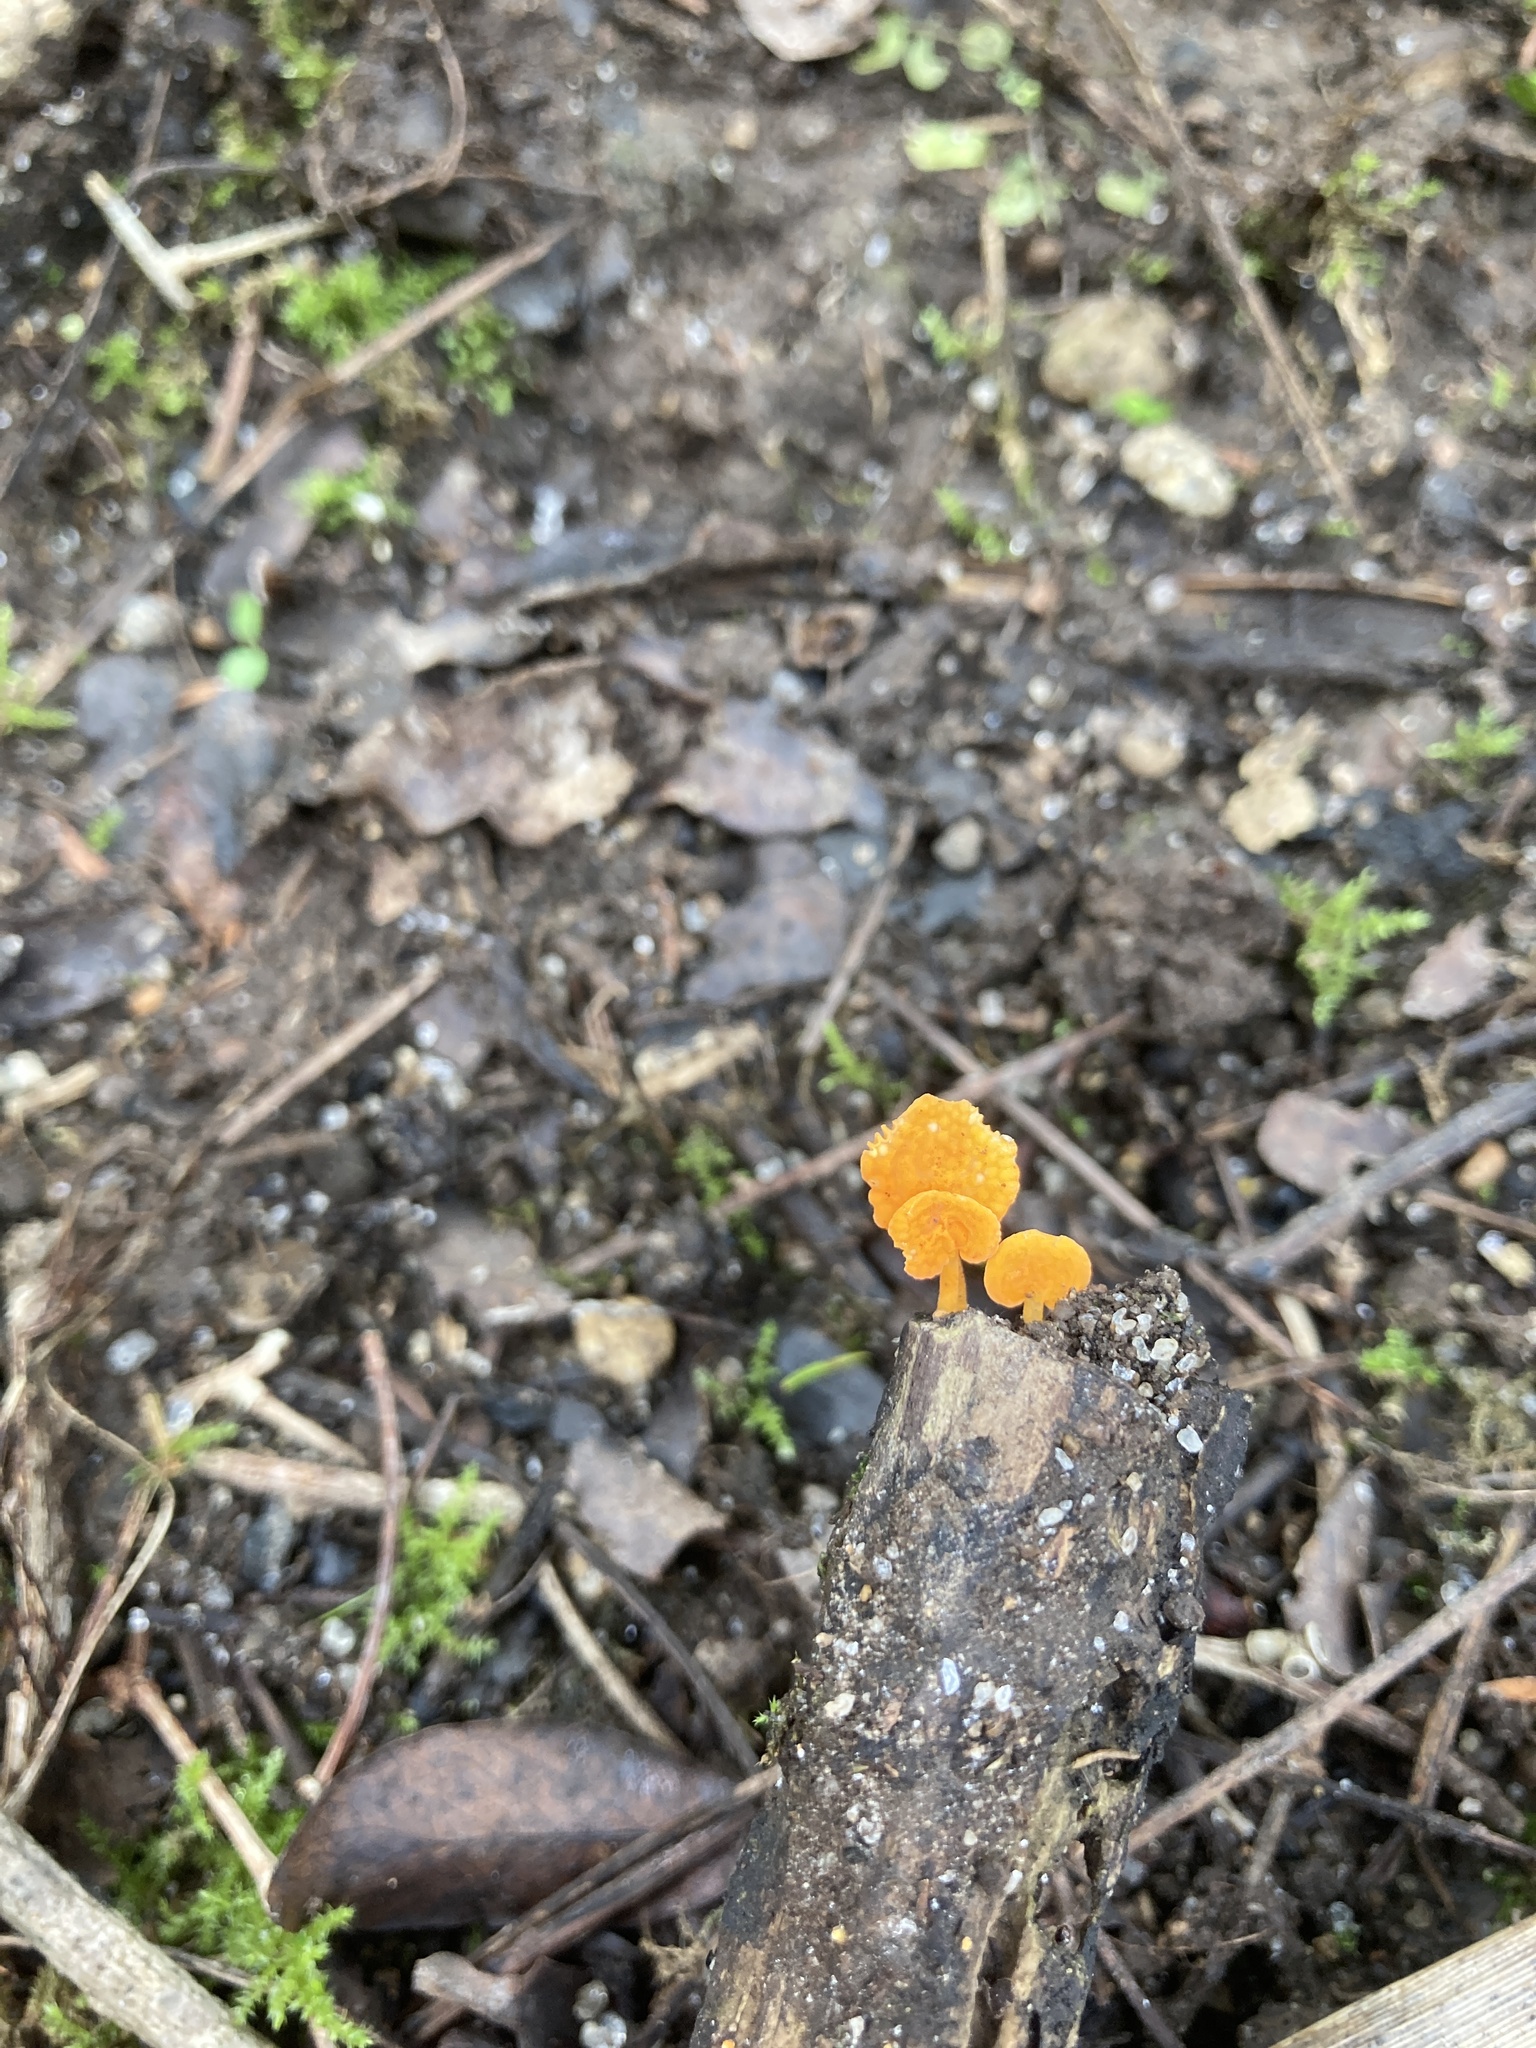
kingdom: Fungi
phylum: Basidiomycota
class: Agaricomycetes
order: Agaricales
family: Mycenaceae
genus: Favolaschia
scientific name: Favolaschia claudopus
